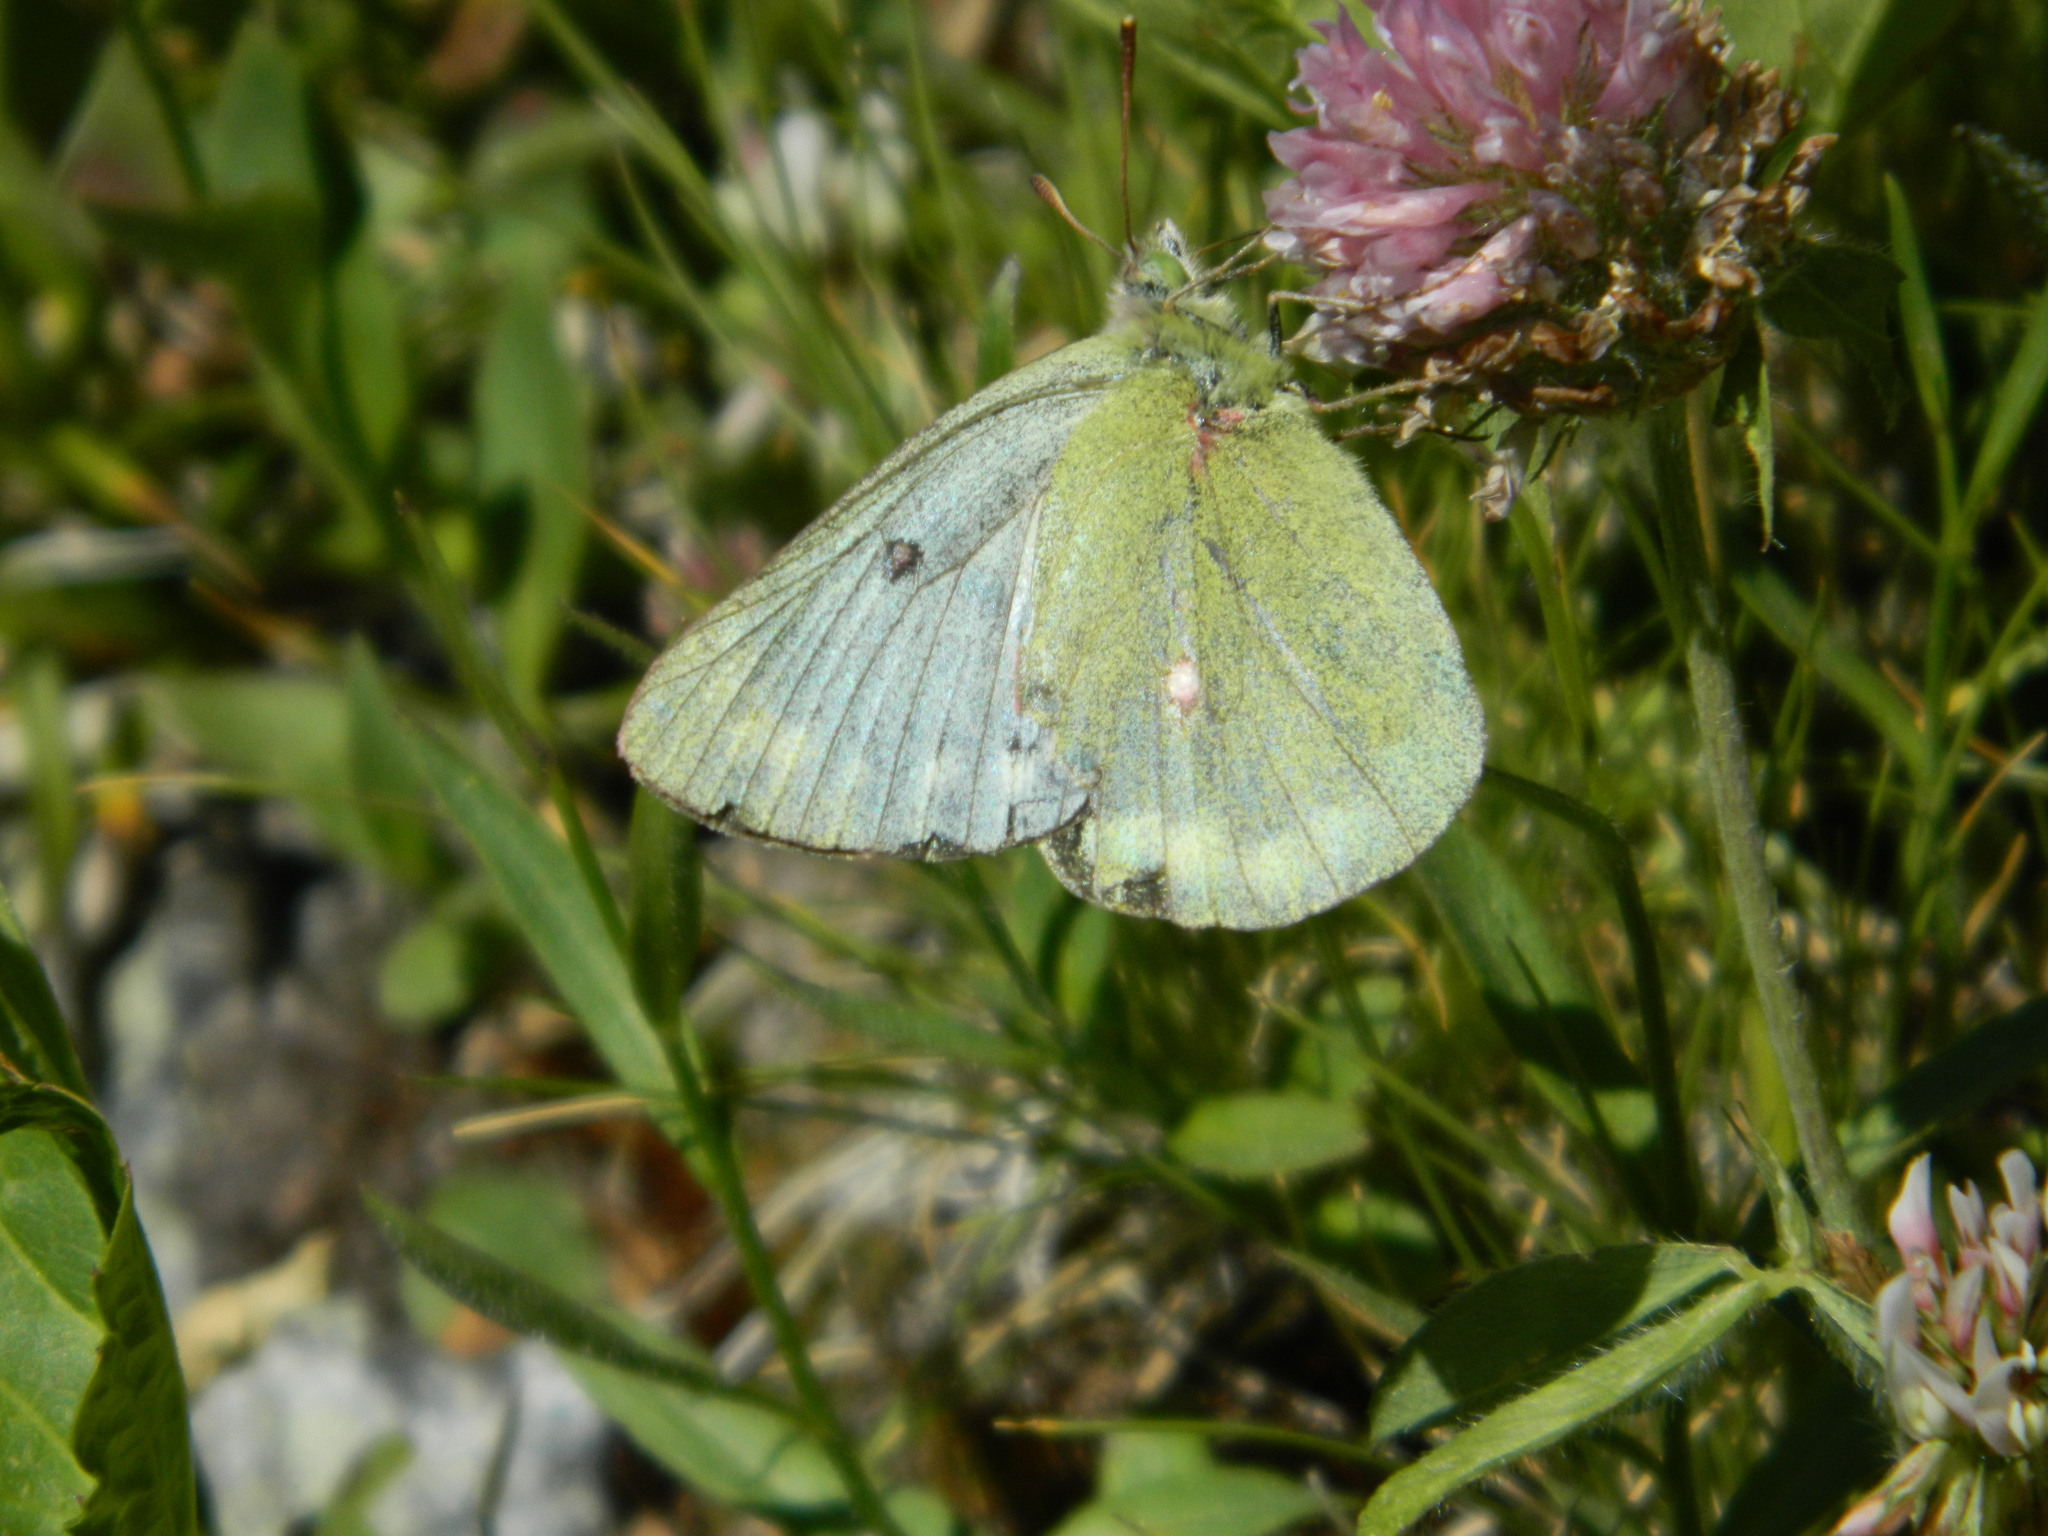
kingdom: Animalia
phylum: Arthropoda
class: Insecta
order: Lepidoptera
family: Pieridae
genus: Colias
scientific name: Colias phicomone
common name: Mountain clouded yellow
